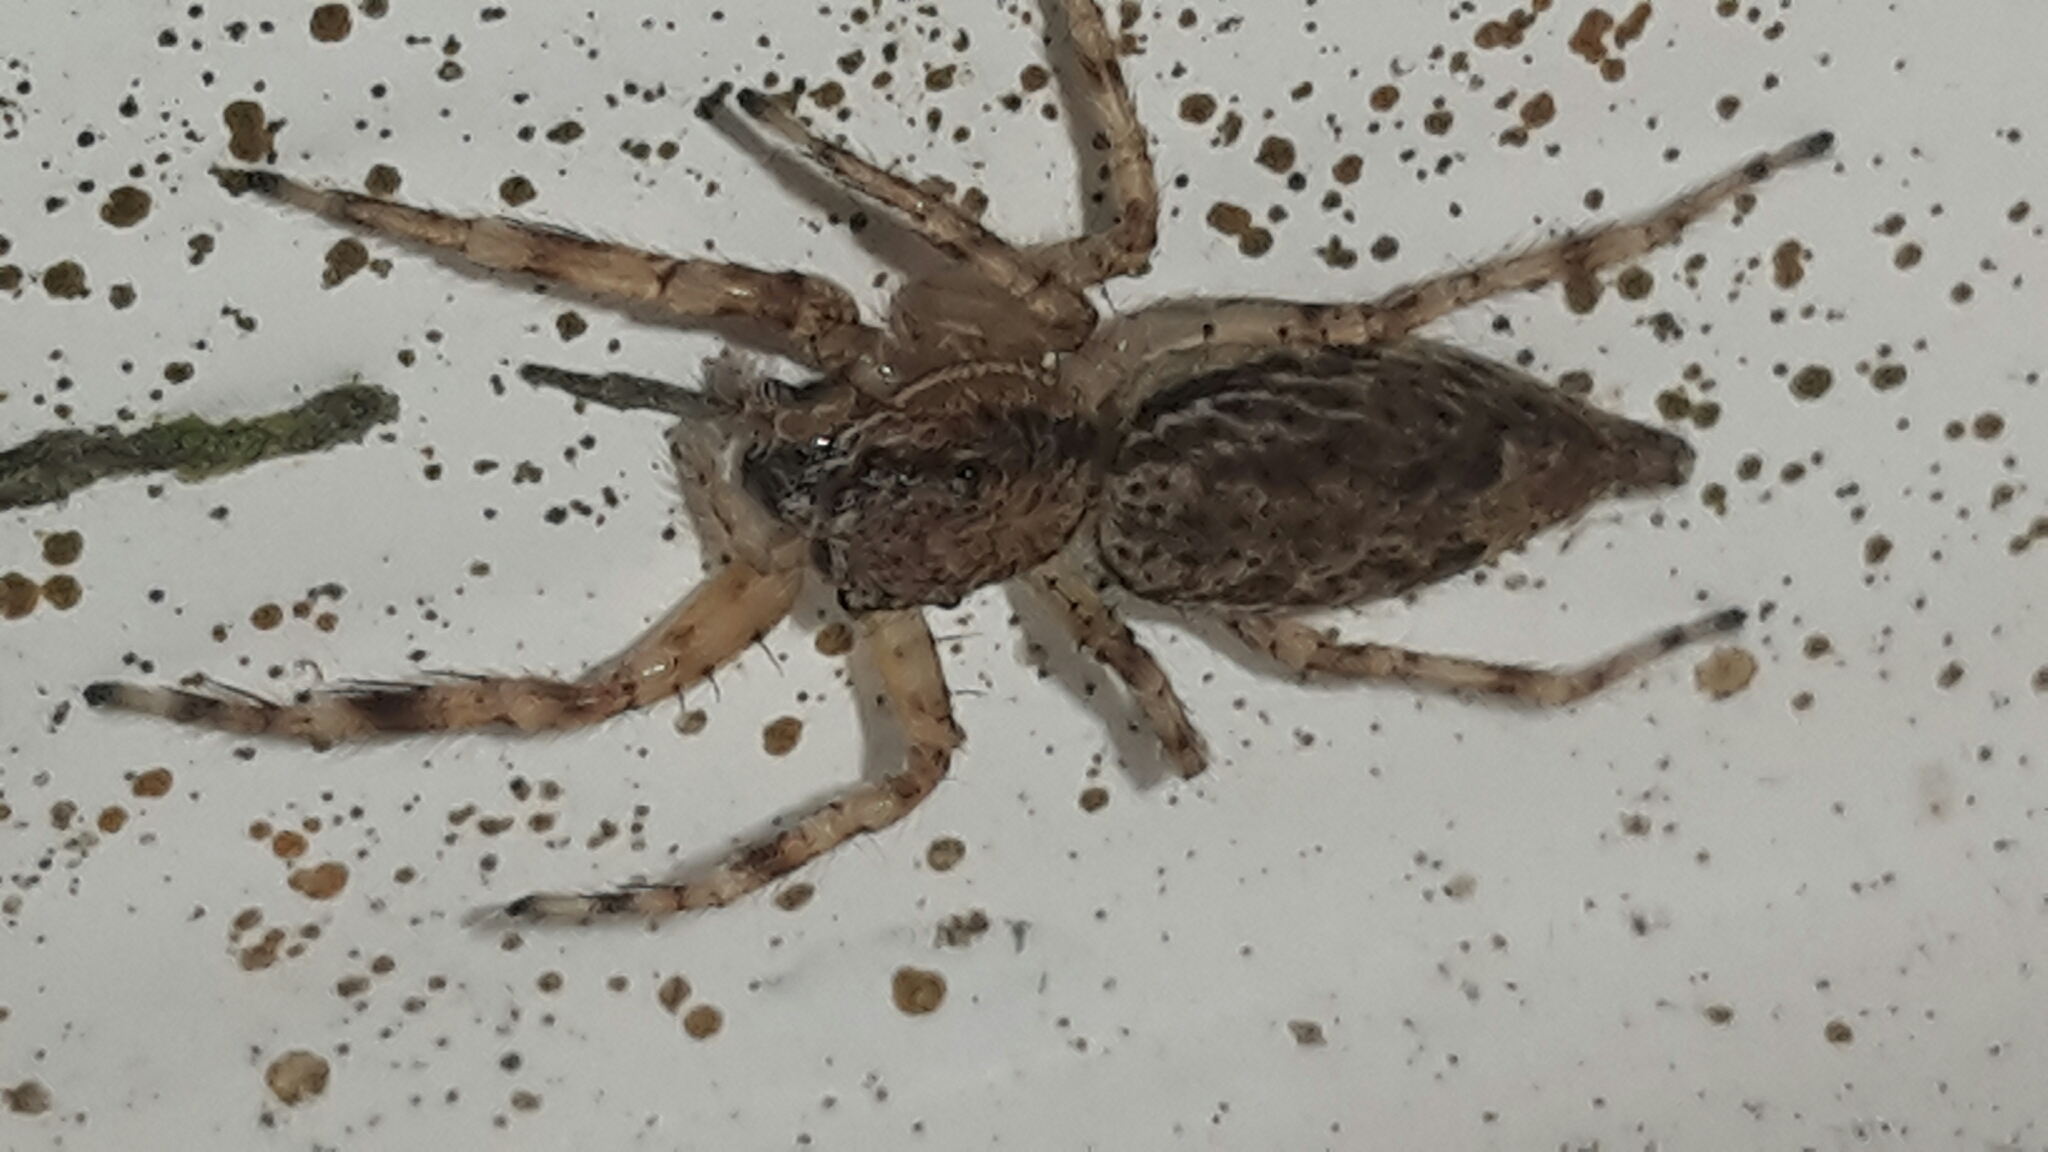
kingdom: Animalia
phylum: Arthropoda
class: Arachnida
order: Araneae
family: Salticidae
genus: Helpis
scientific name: Helpis minitabunda
